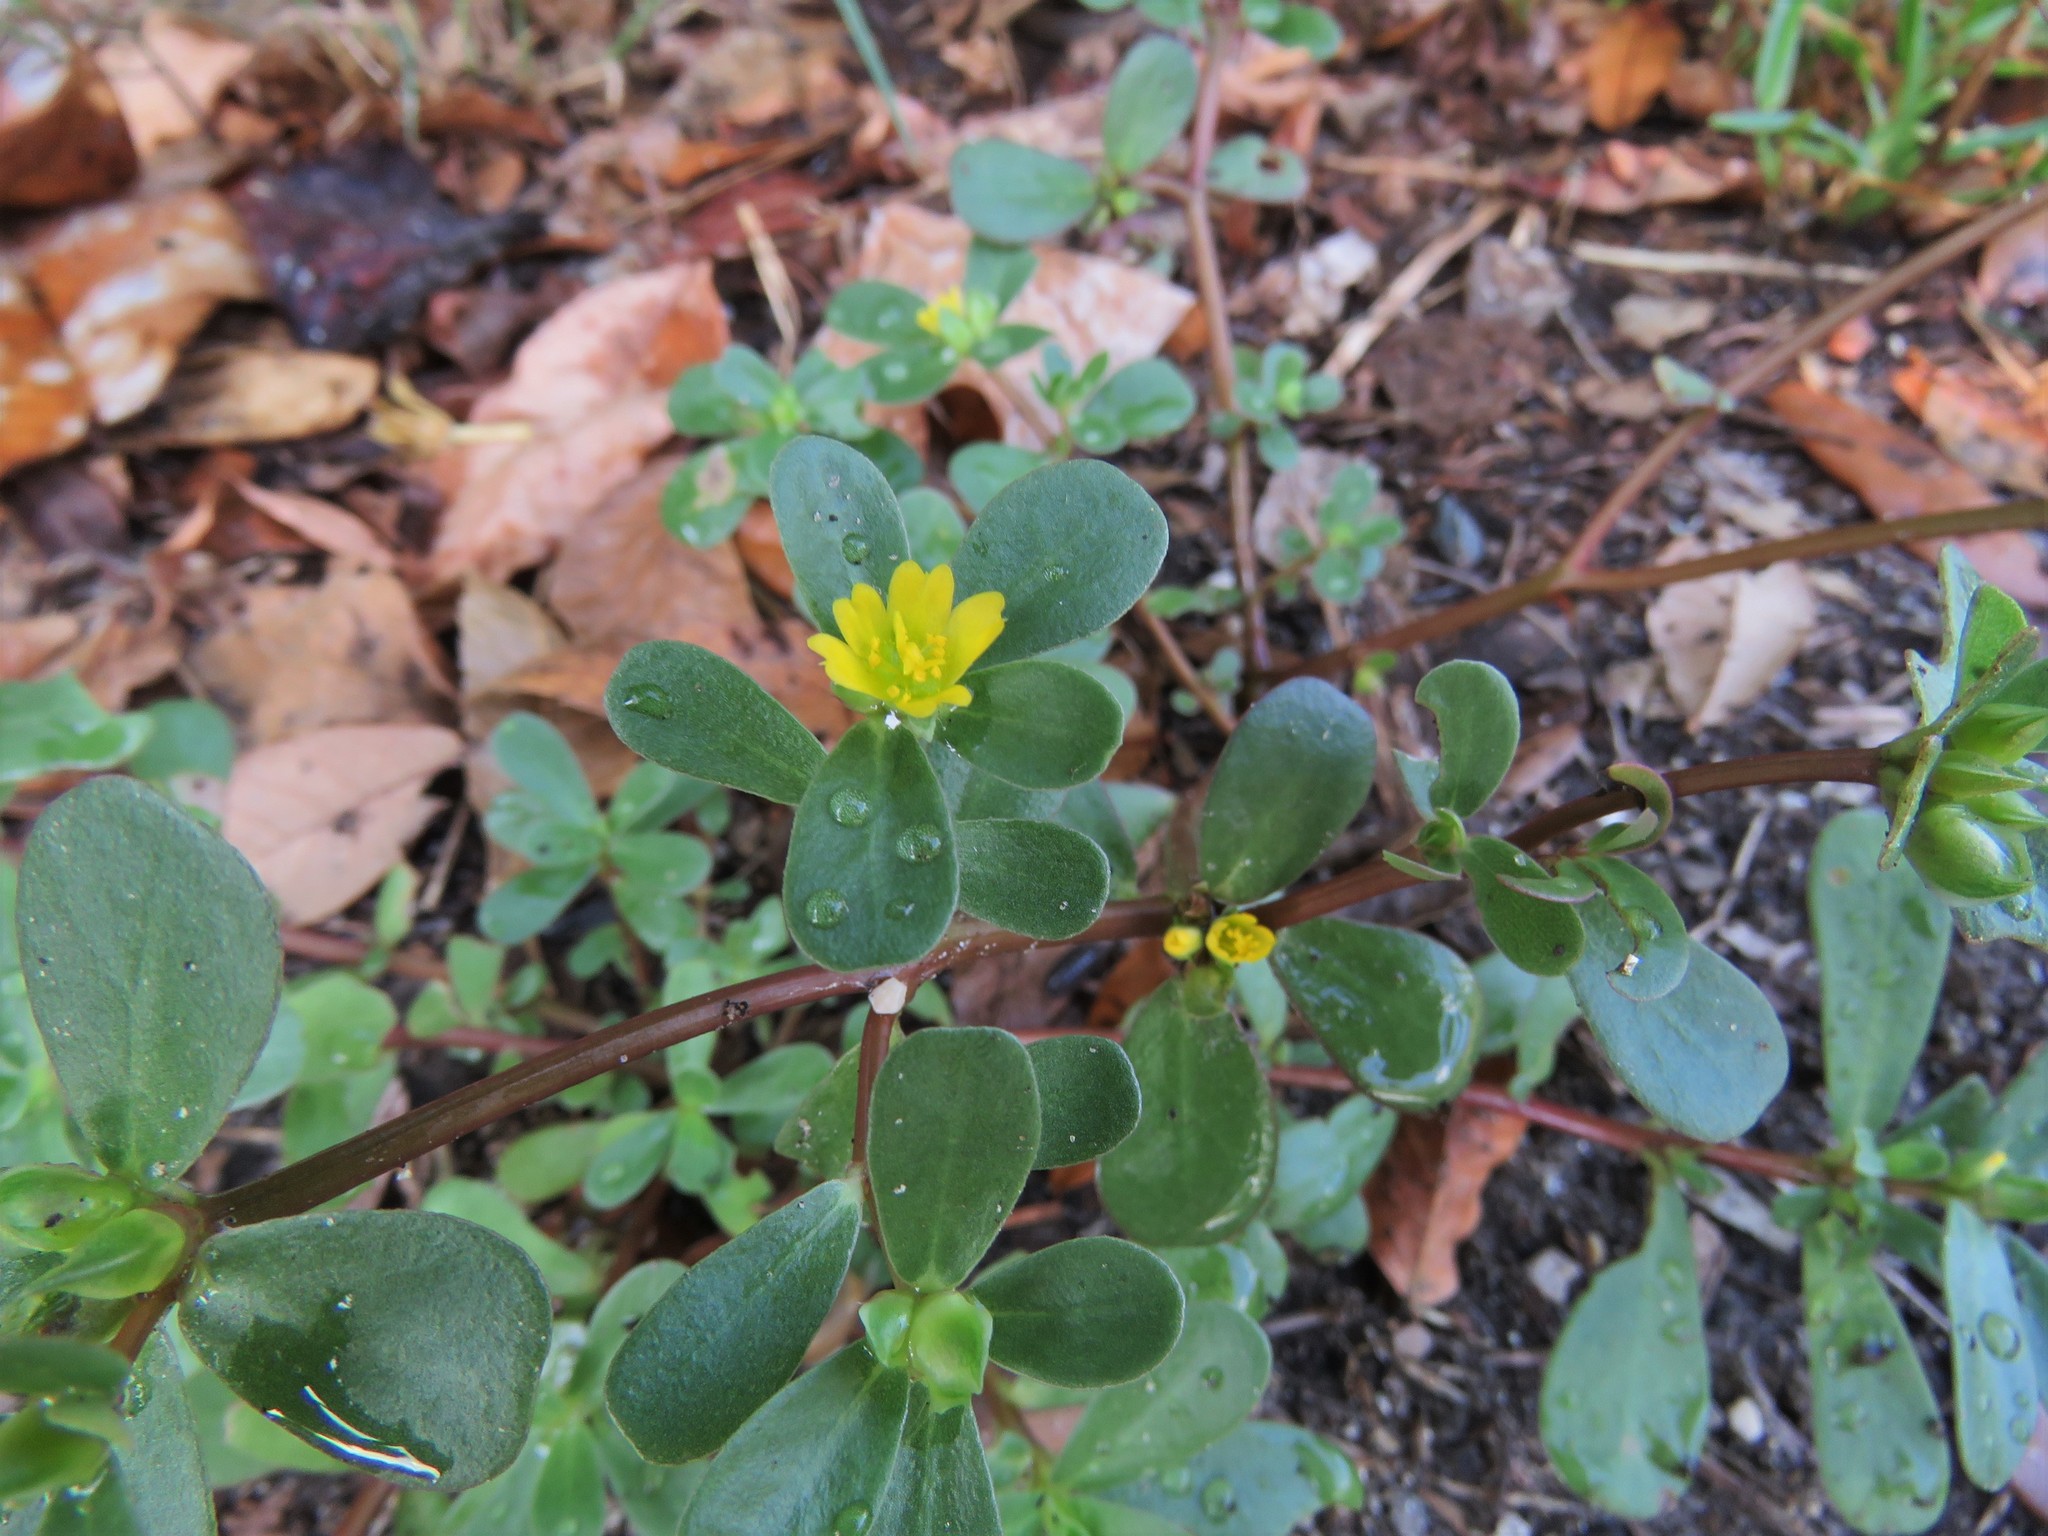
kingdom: Plantae
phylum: Tracheophyta
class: Magnoliopsida
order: Caryophyllales
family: Portulacaceae
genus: Portulaca
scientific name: Portulaca oleracea
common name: Common purslane
